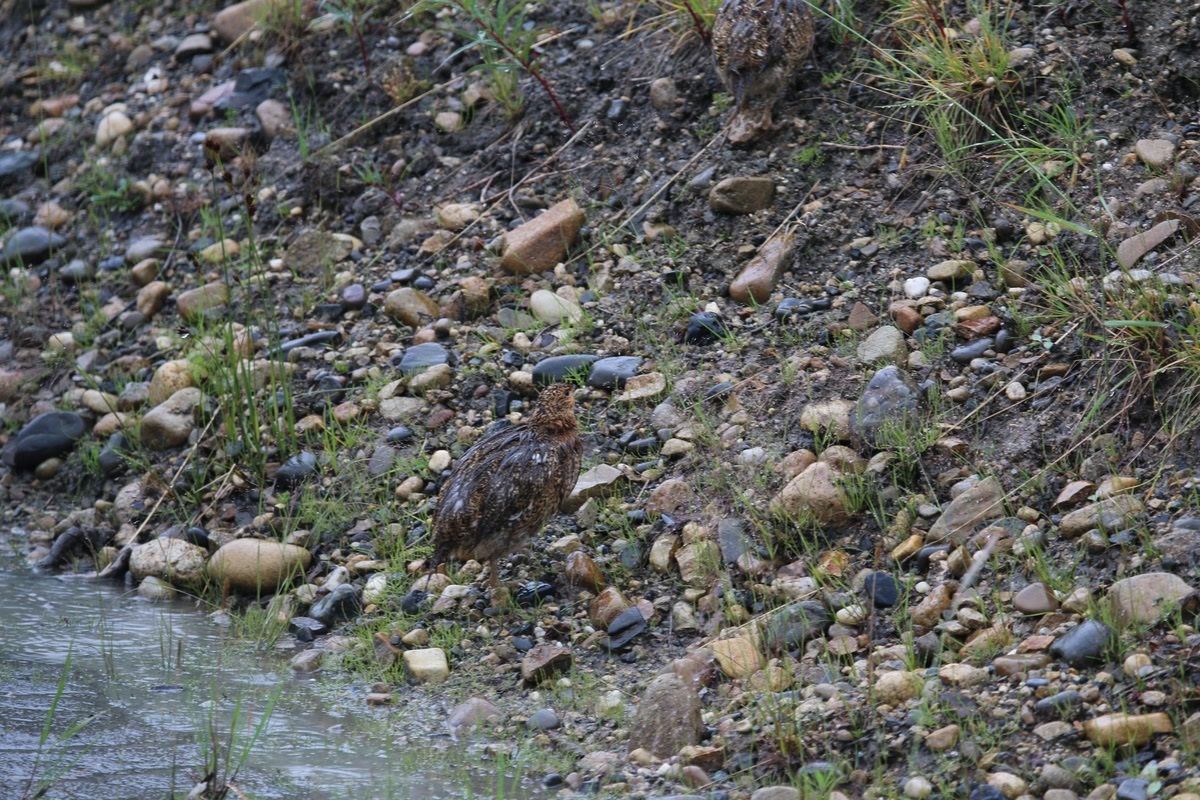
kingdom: Animalia
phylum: Chordata
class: Aves
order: Galliformes
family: Phasianidae
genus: Lagopus
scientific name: Lagopus lagopus
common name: Willow ptarmigan
